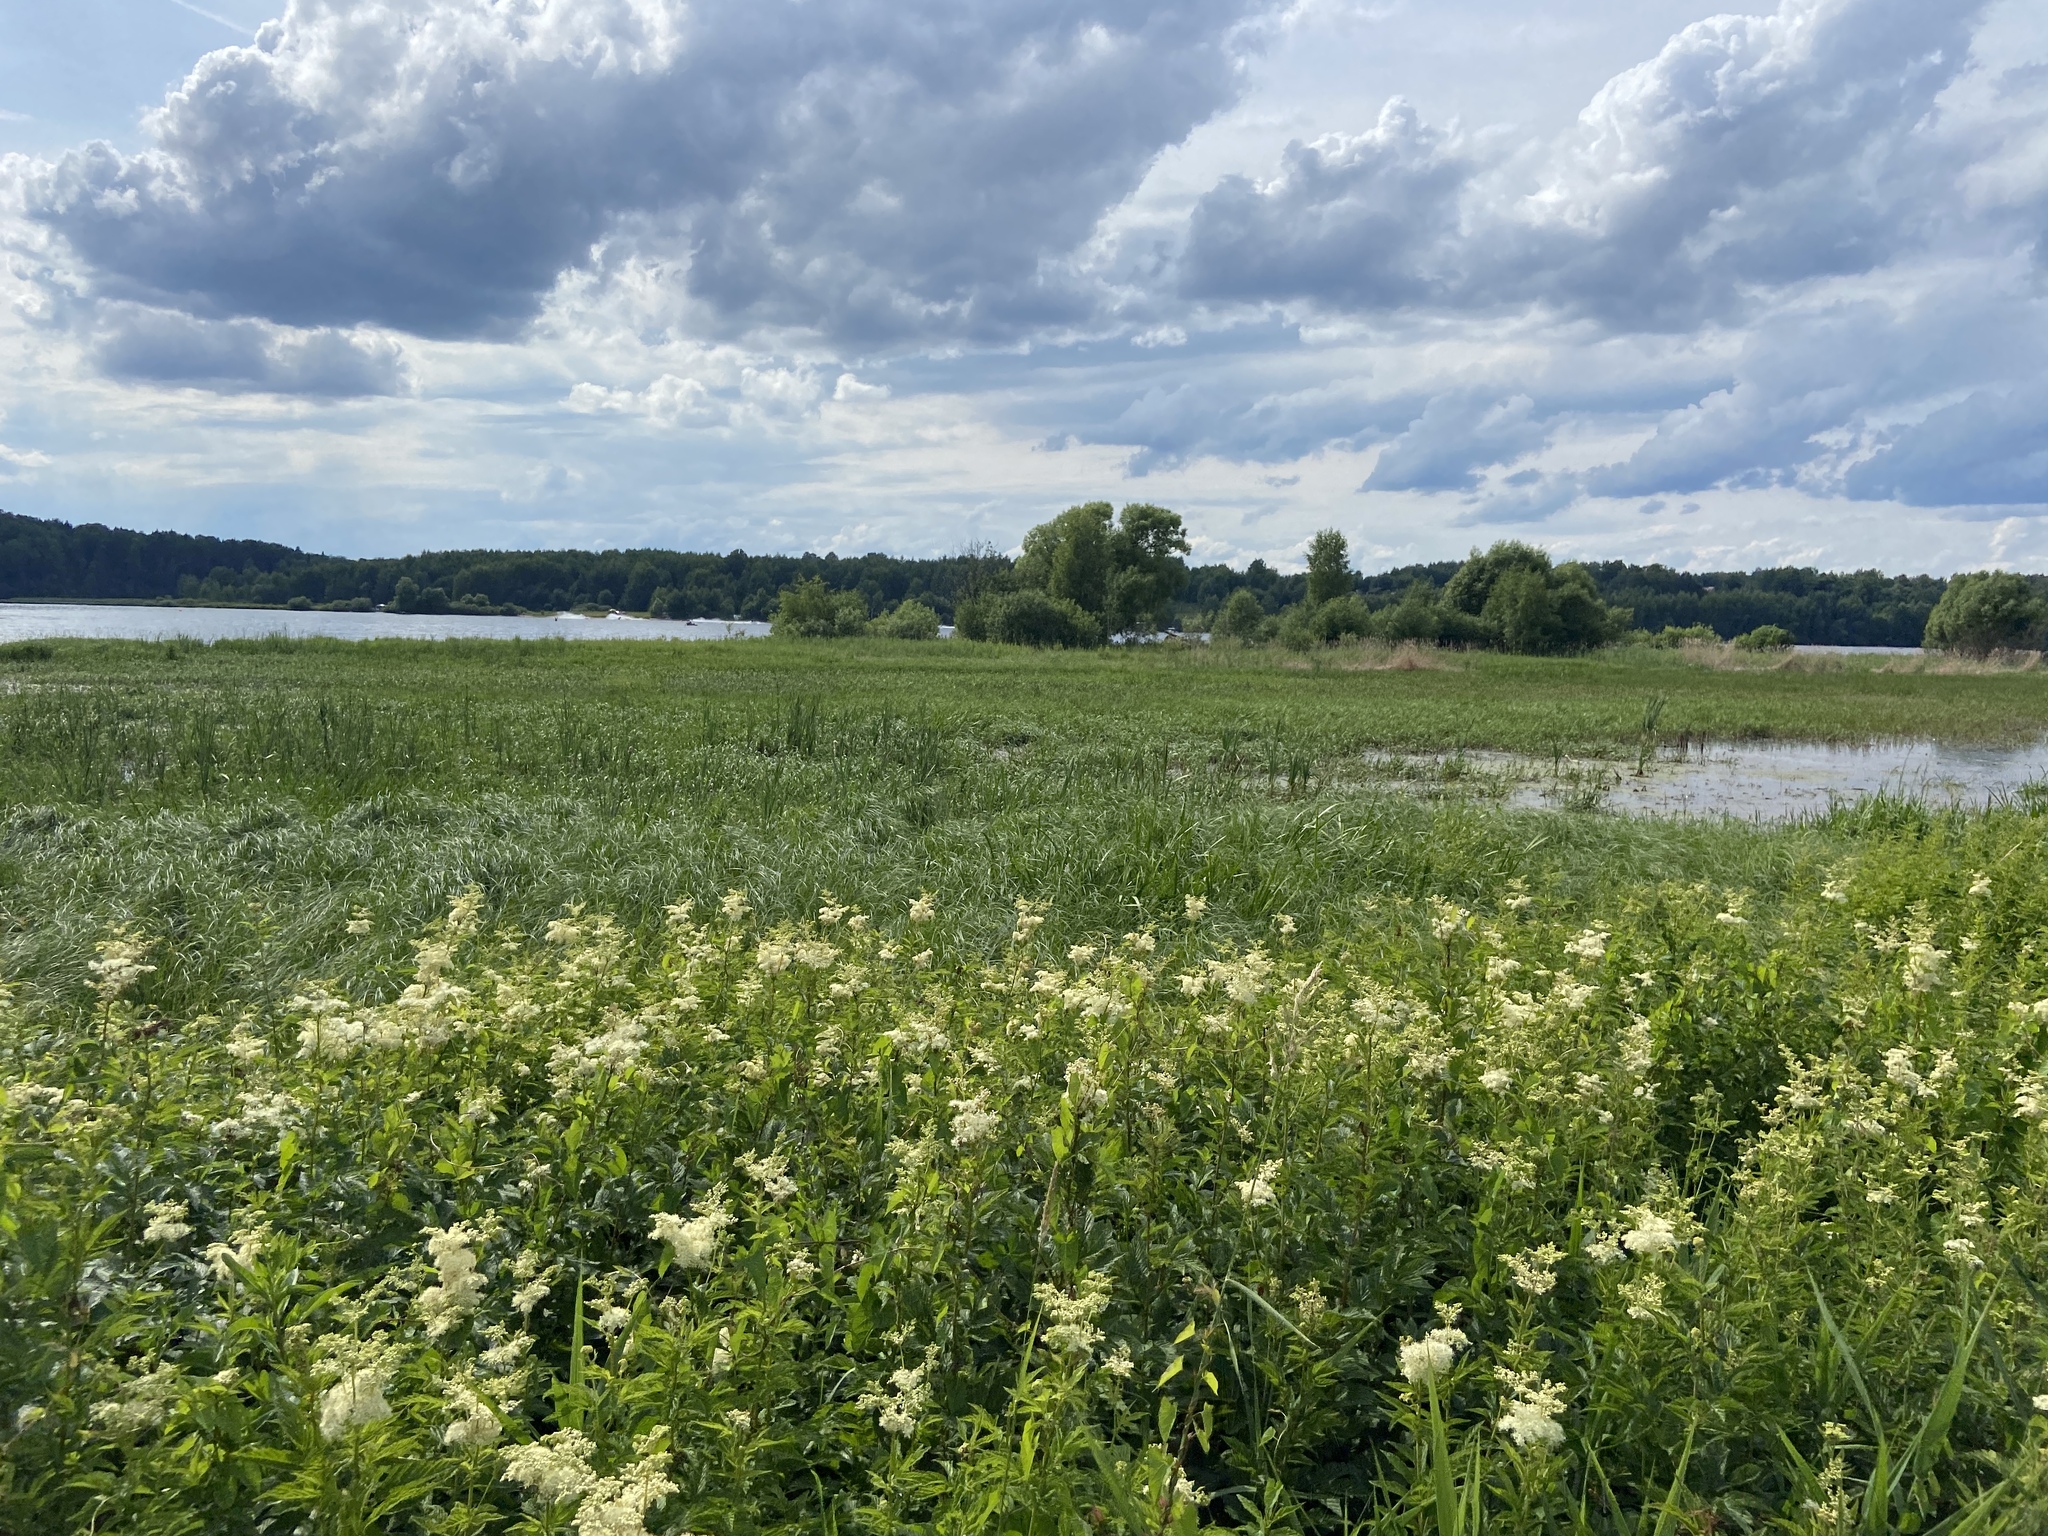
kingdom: Plantae
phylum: Tracheophyta
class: Magnoliopsida
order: Rosales
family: Rosaceae
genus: Filipendula
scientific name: Filipendula ulmaria
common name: Meadowsweet
